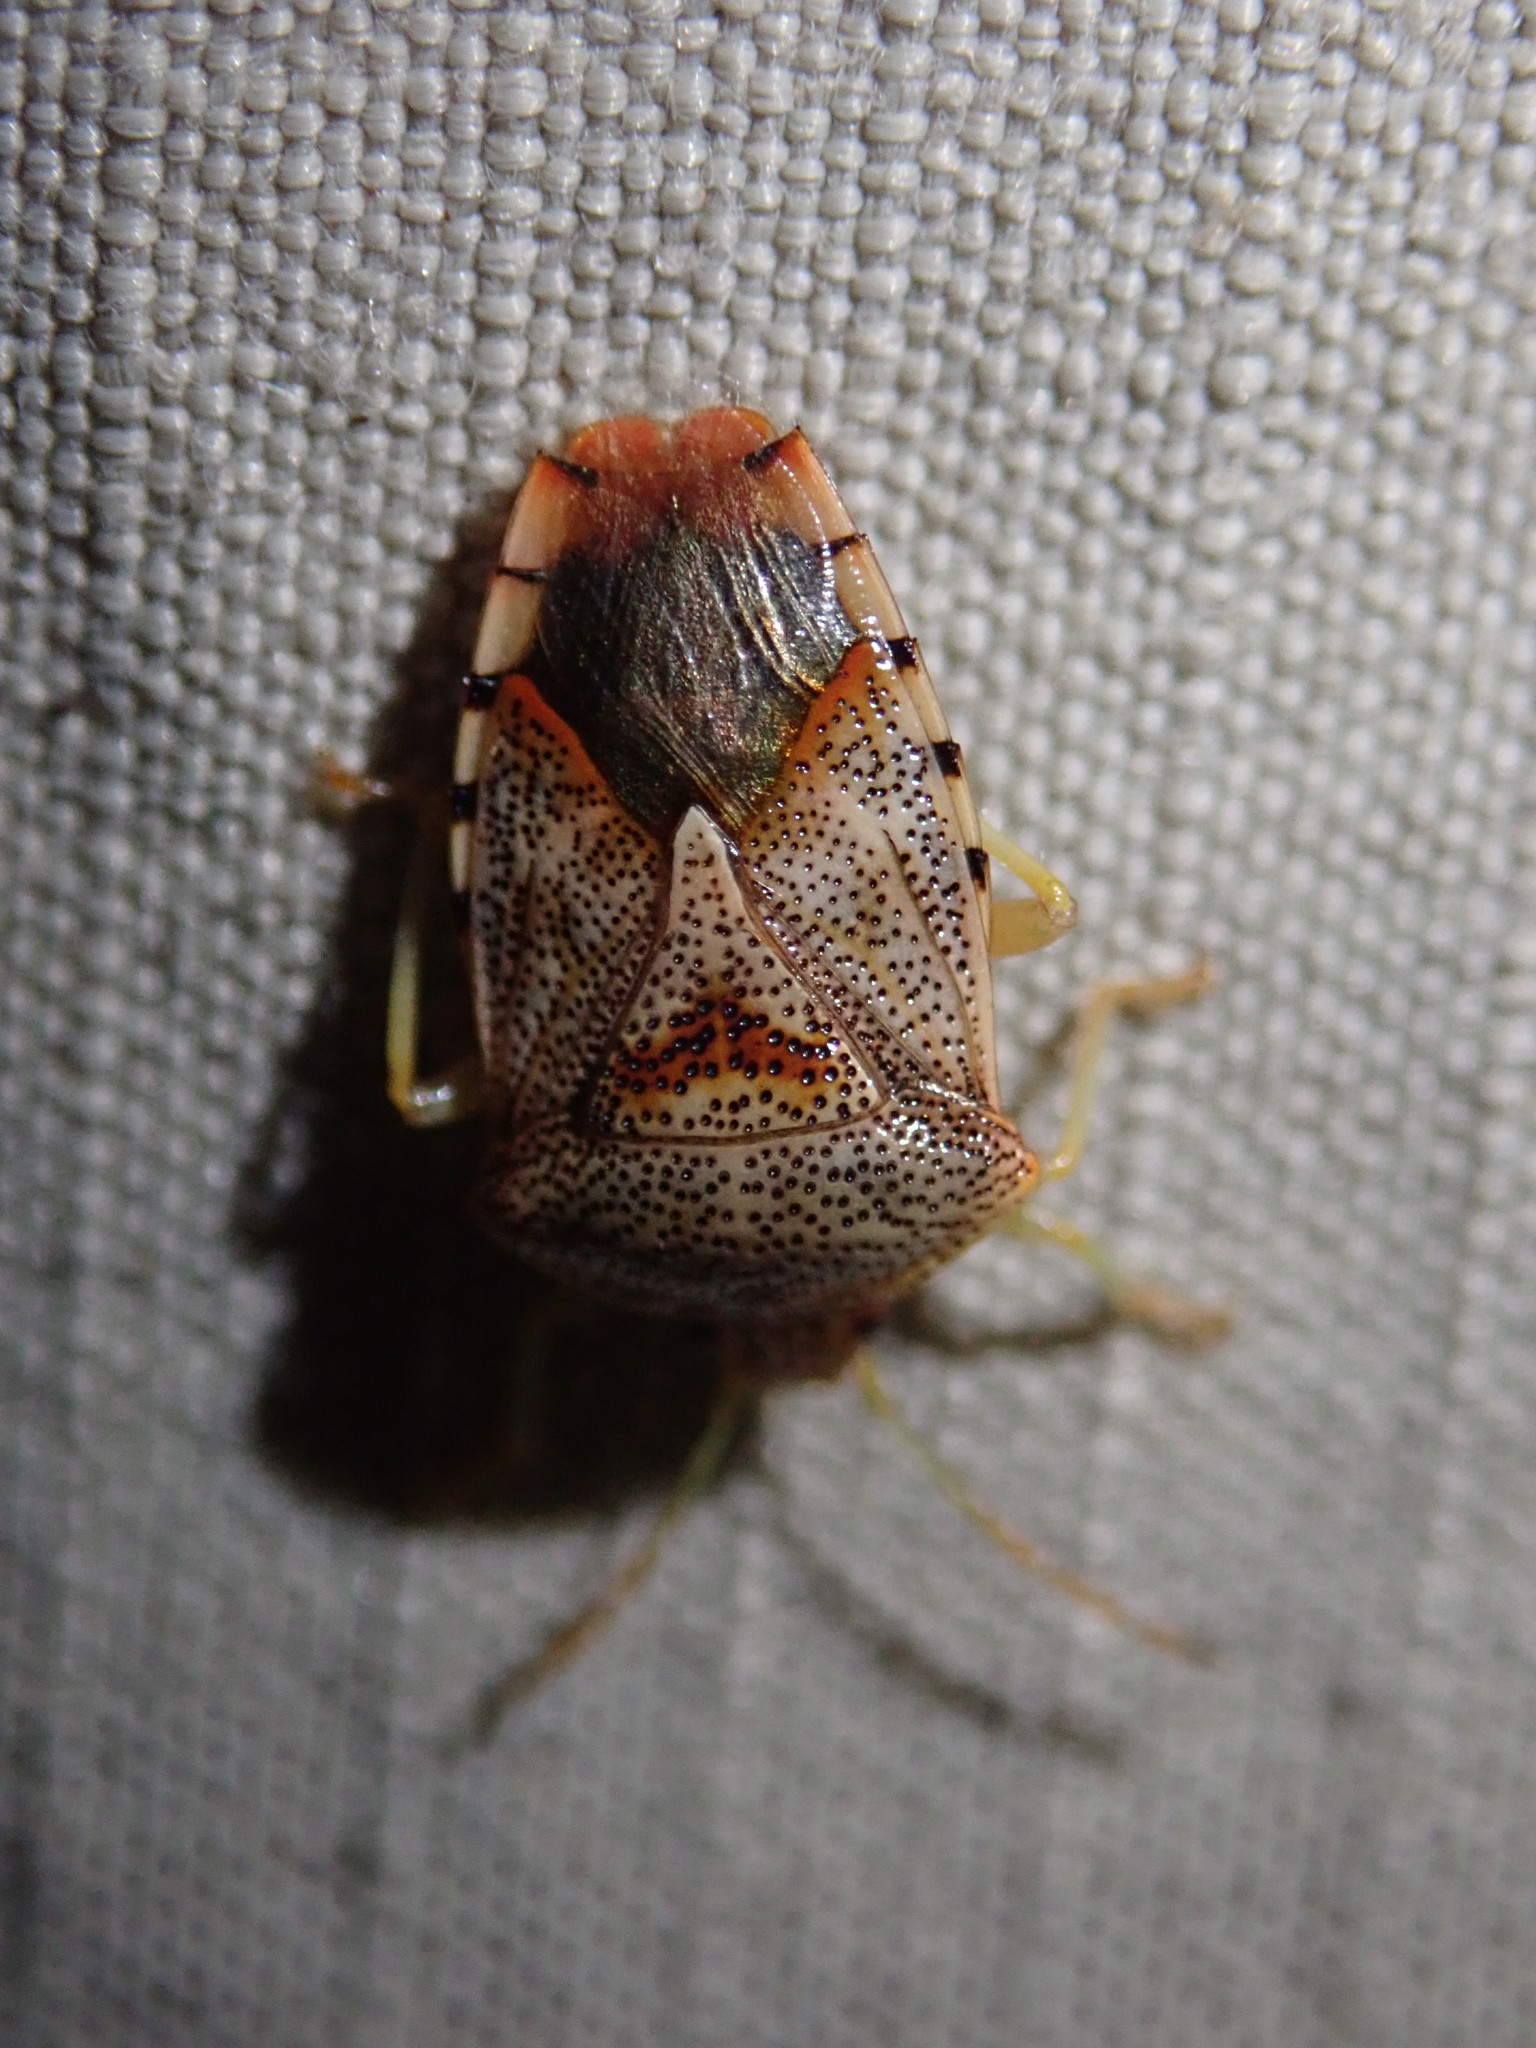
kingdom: Animalia
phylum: Arthropoda
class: Insecta
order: Hemiptera
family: Acanthosomatidae
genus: Elasmucha
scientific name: Elasmucha grisea
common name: Parent bug
